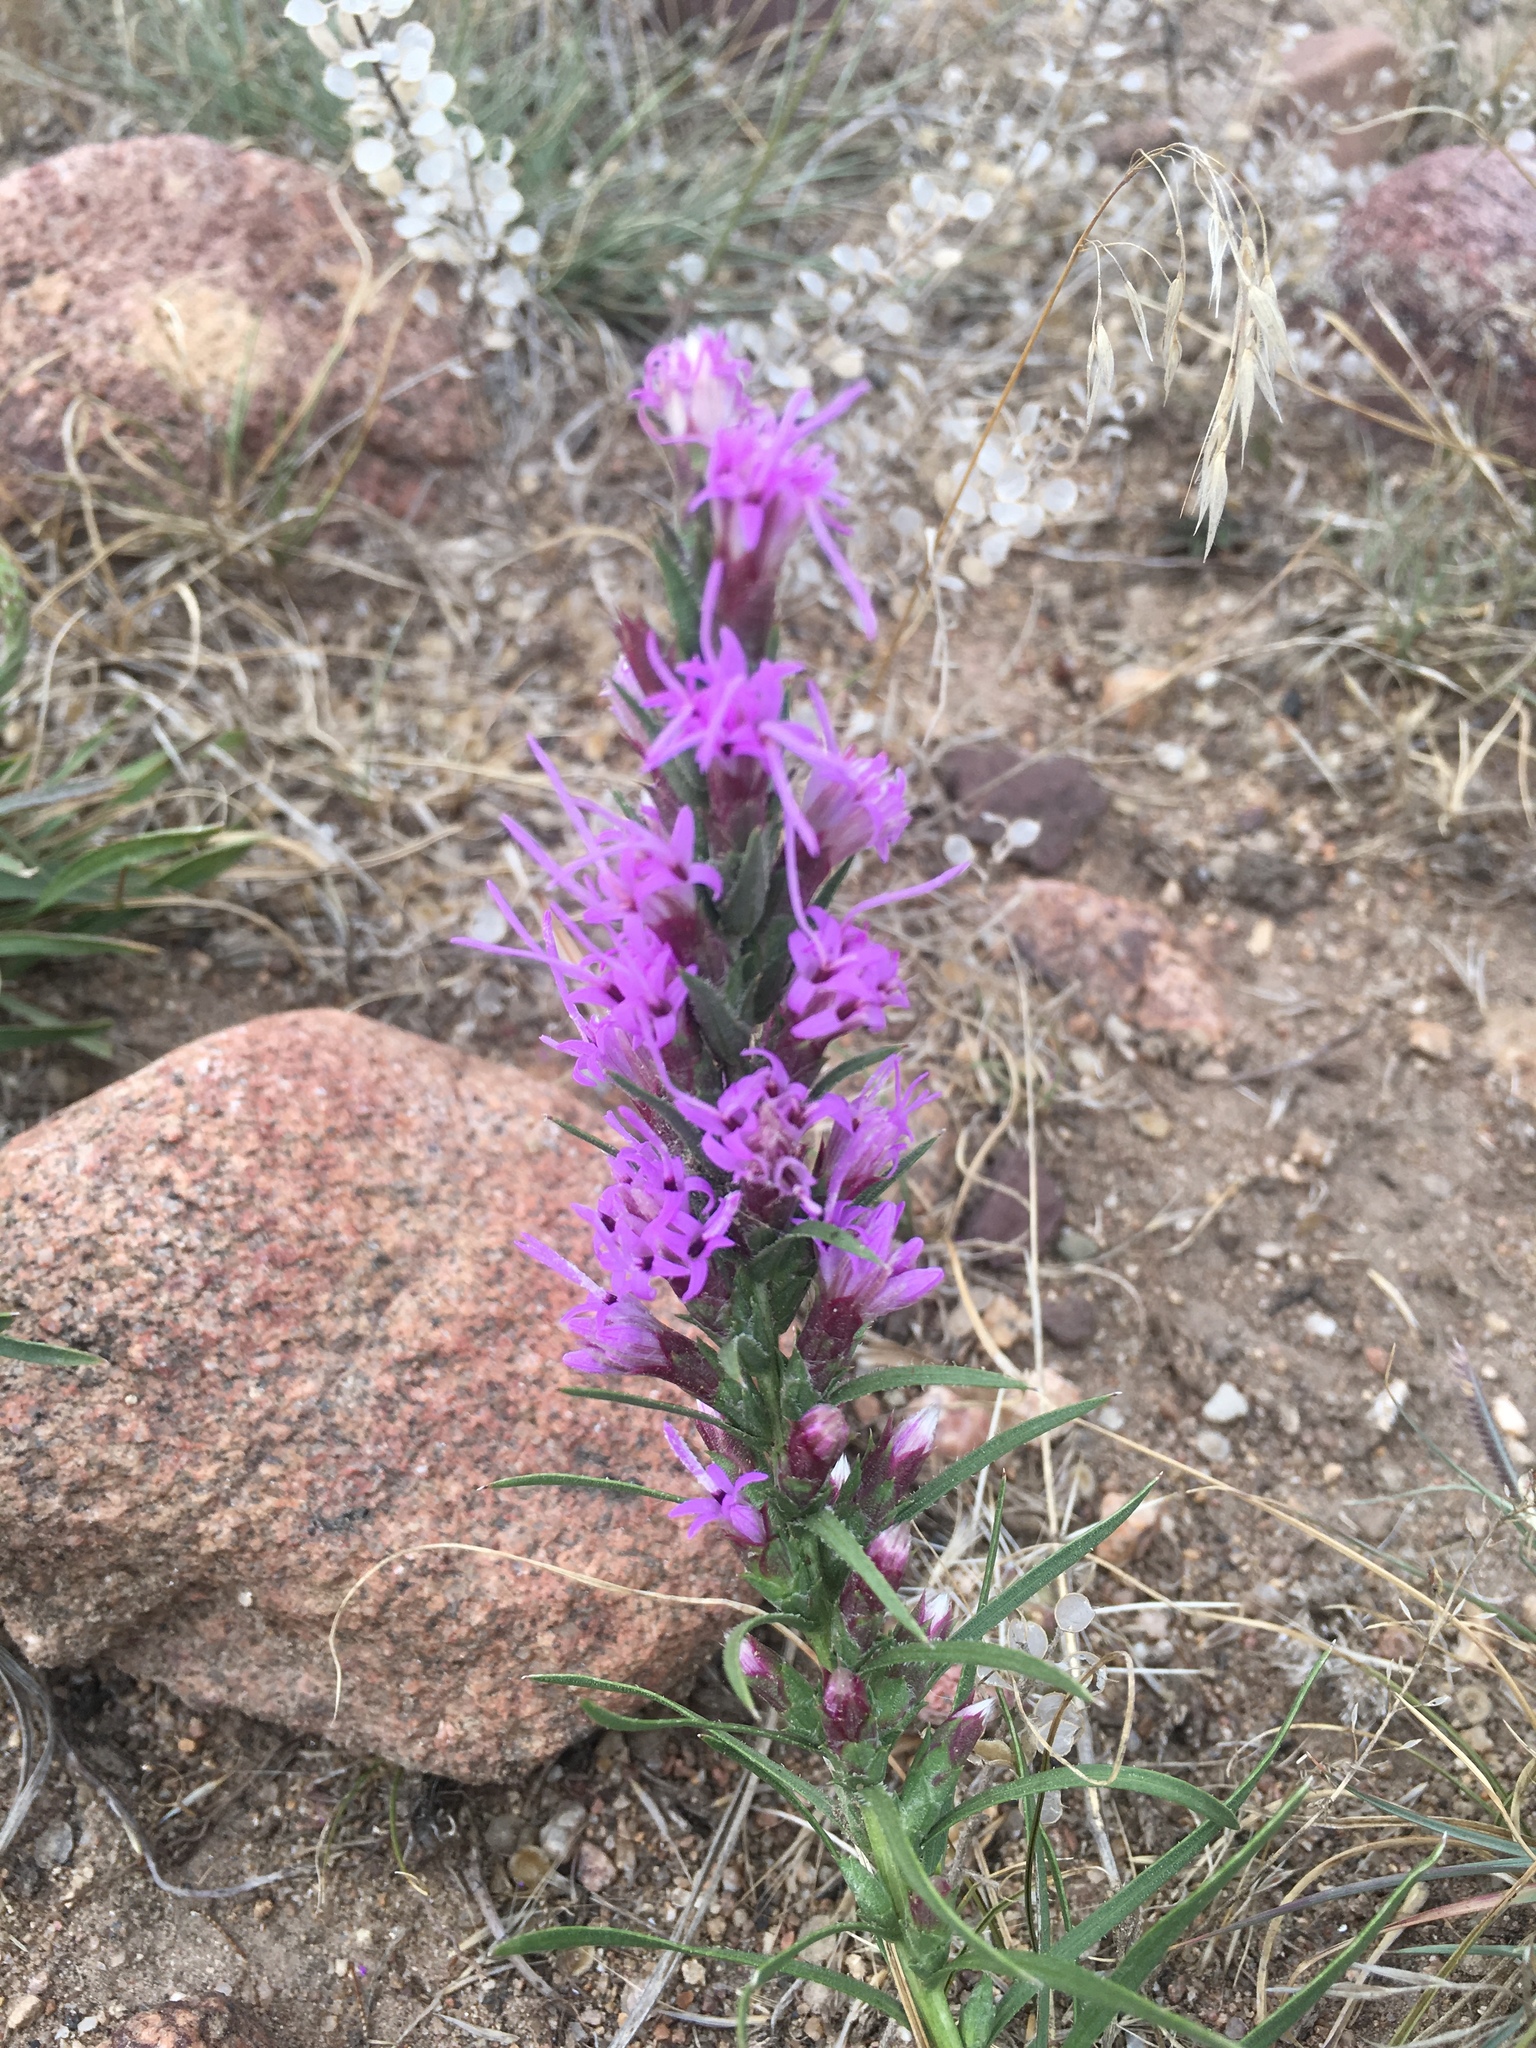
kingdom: Plantae
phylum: Tracheophyta
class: Magnoliopsida
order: Asterales
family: Asteraceae
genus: Liatris
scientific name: Liatris punctata
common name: Dotted gayfeather
